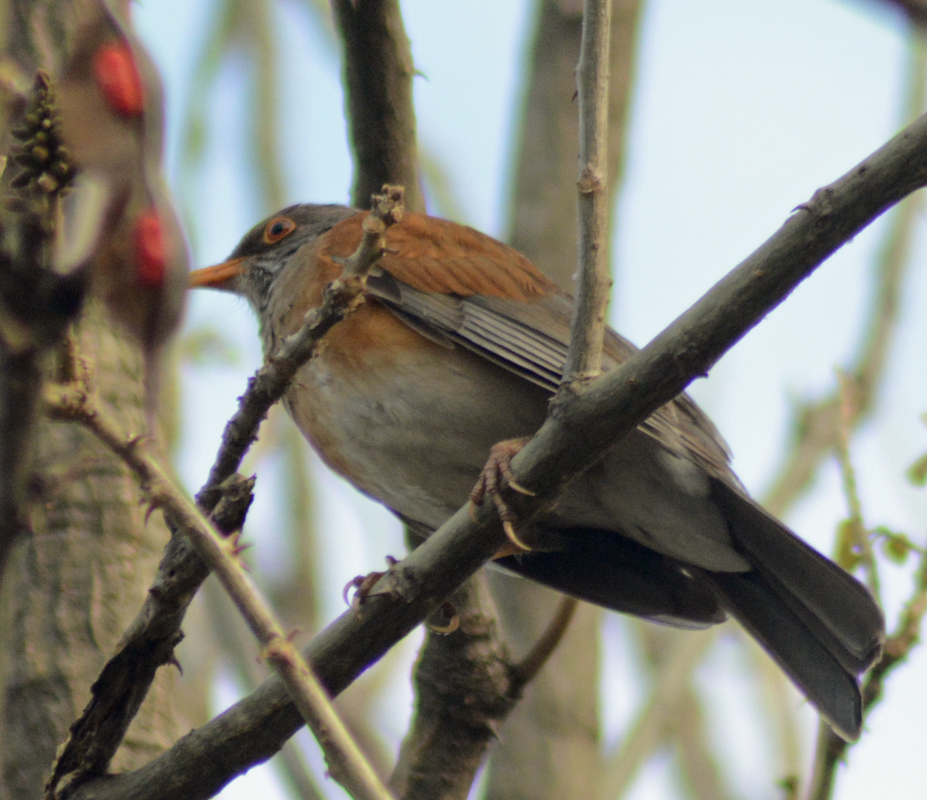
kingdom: Animalia
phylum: Chordata
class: Aves
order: Passeriformes
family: Turdidae
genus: Turdus
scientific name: Turdus rufopalliatus
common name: Rufous-backed robin
